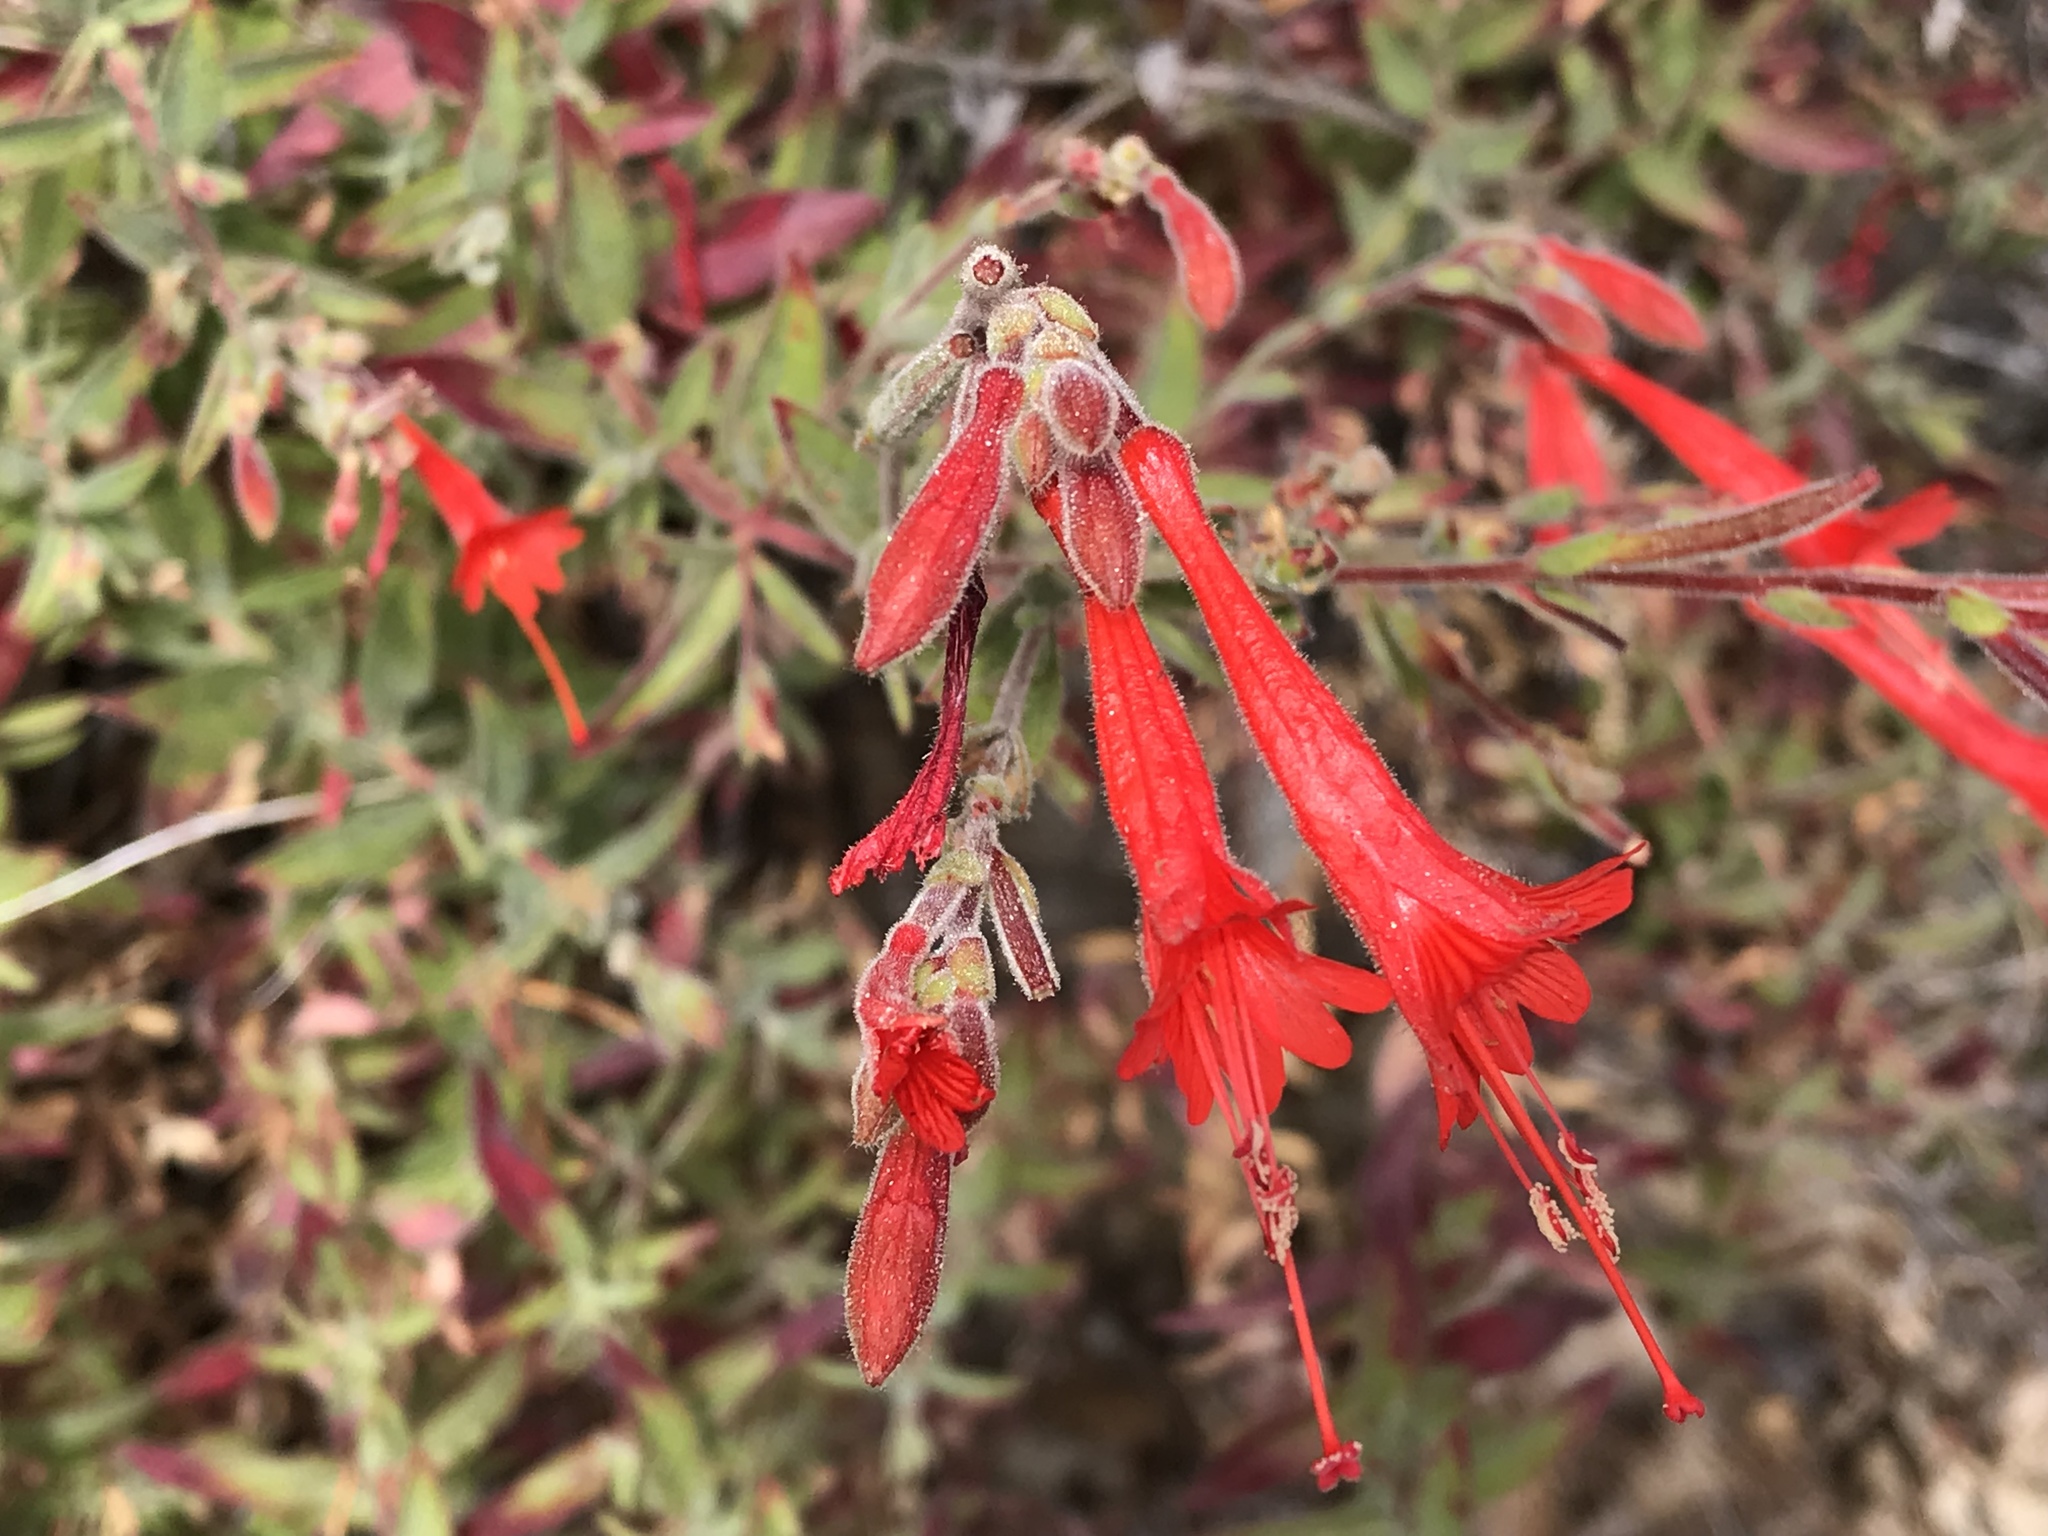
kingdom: Plantae
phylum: Tracheophyta
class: Magnoliopsida
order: Myrtales
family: Onagraceae
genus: Epilobium
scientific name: Epilobium canum
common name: California-fuchsia
